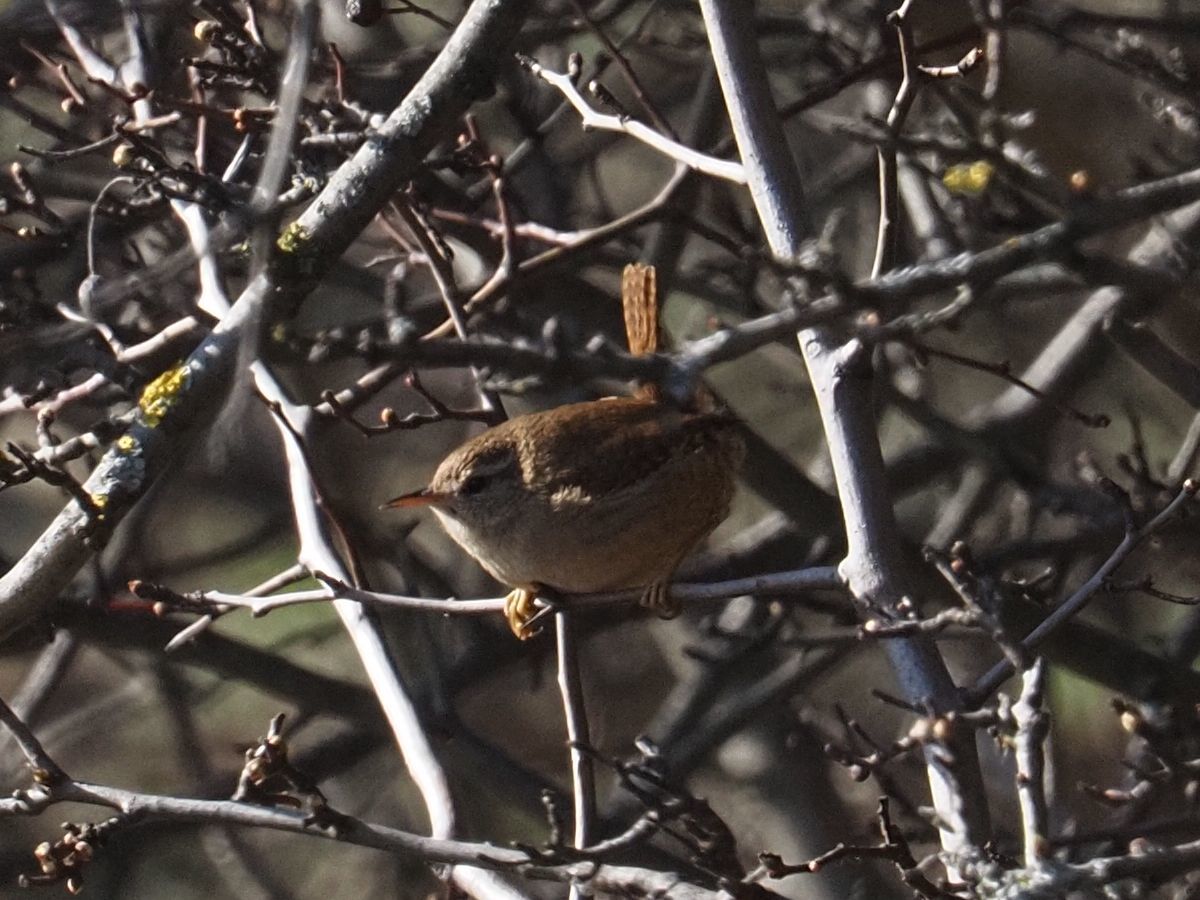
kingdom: Animalia
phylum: Chordata
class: Aves
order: Passeriformes
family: Troglodytidae
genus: Troglodytes
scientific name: Troglodytes troglodytes
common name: Eurasian wren
